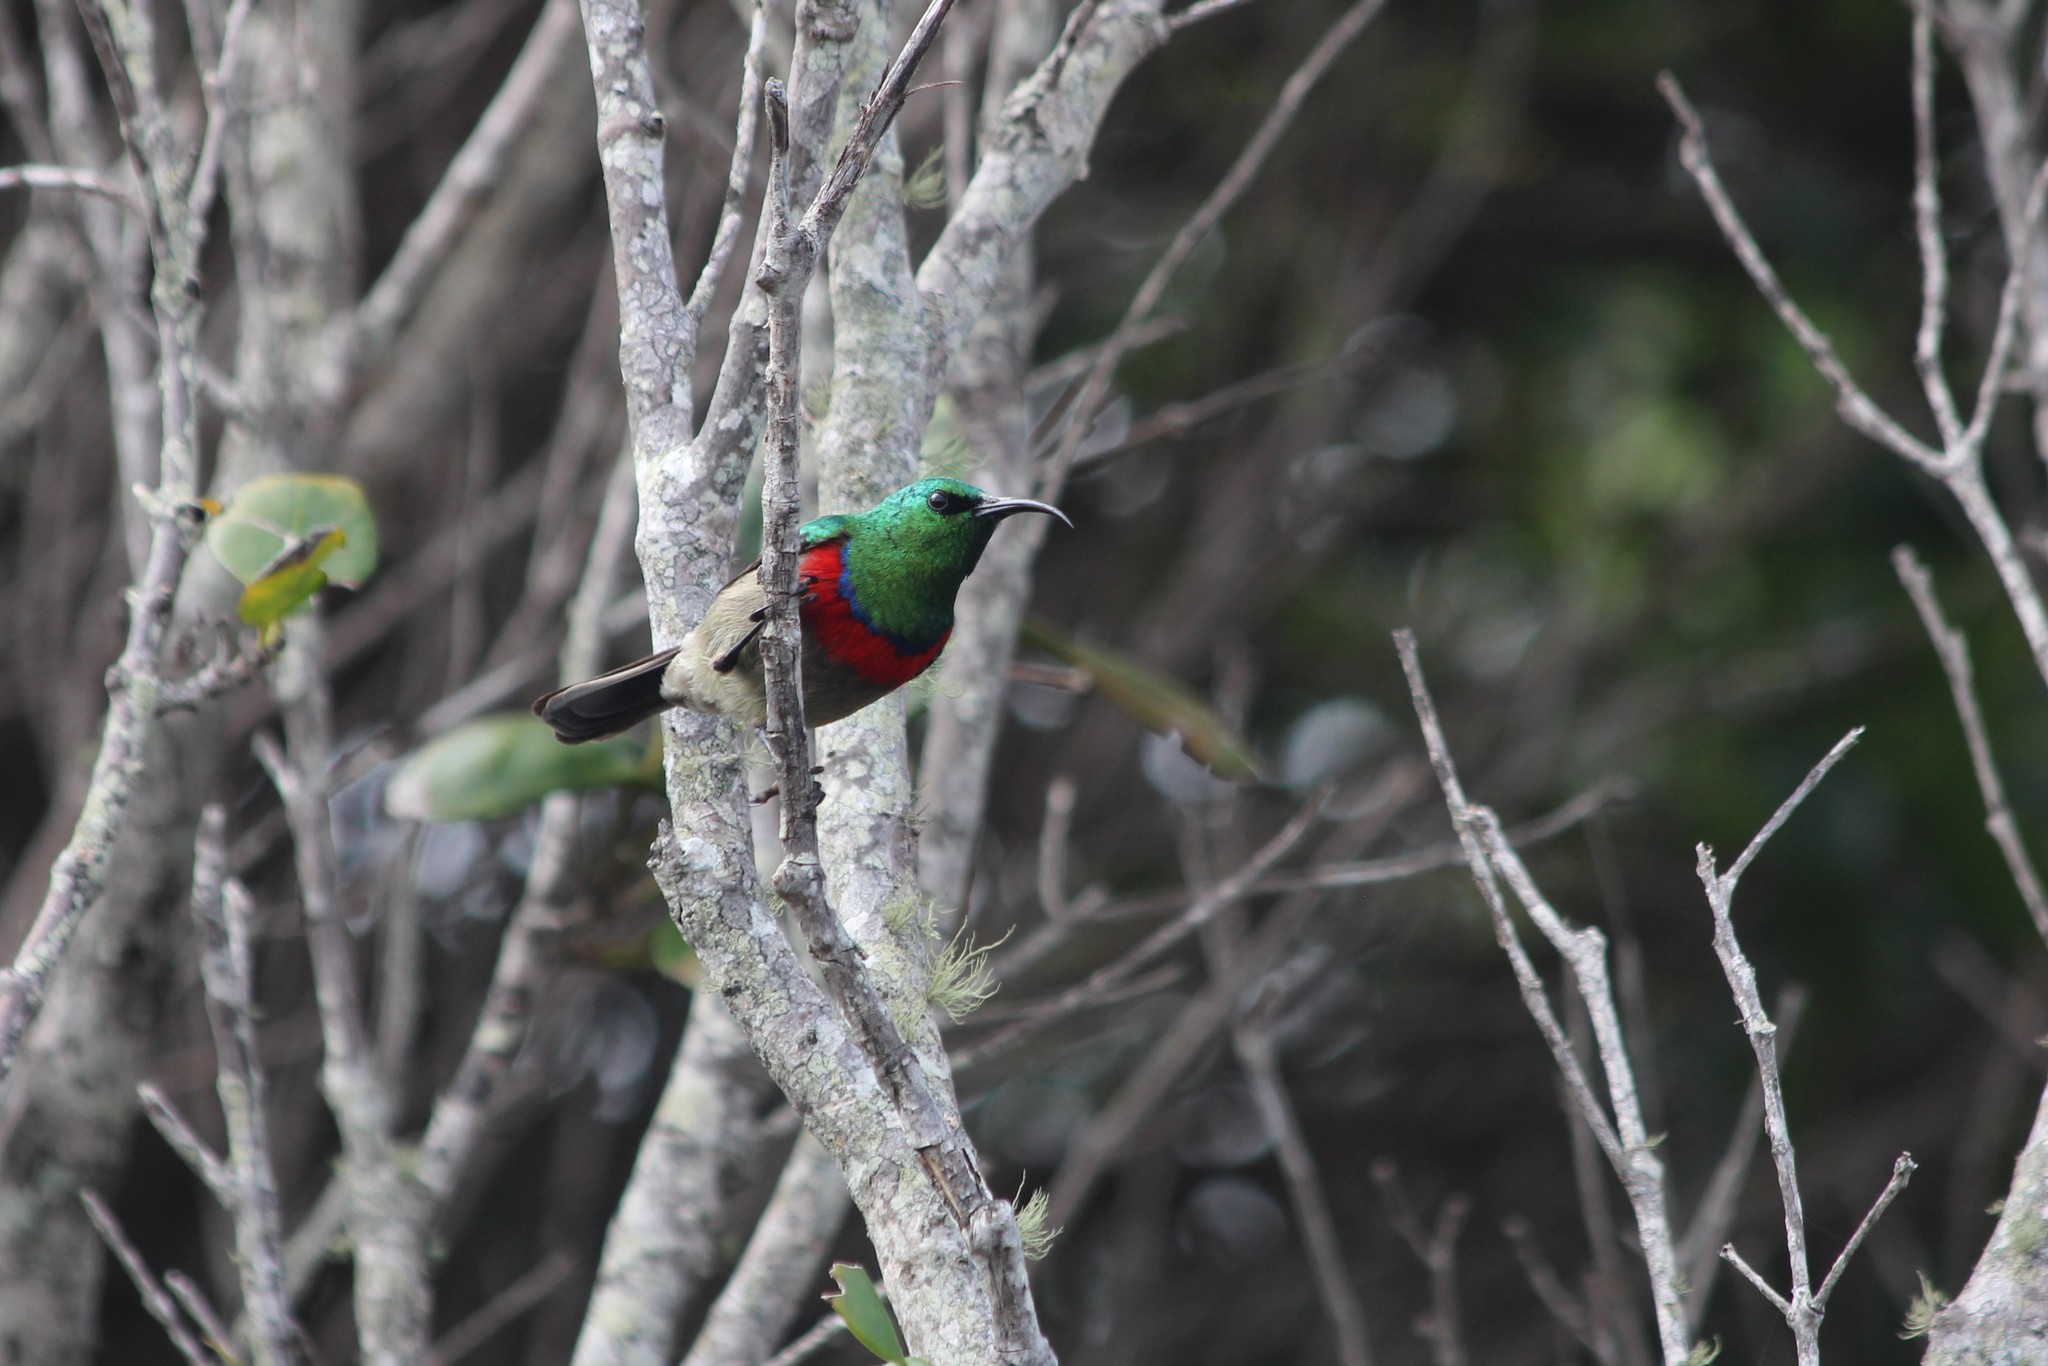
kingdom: Animalia
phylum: Chordata
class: Aves
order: Passeriformes
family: Nectariniidae
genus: Cinnyris
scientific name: Cinnyris chalybeus
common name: Southern double-collared sunbird
